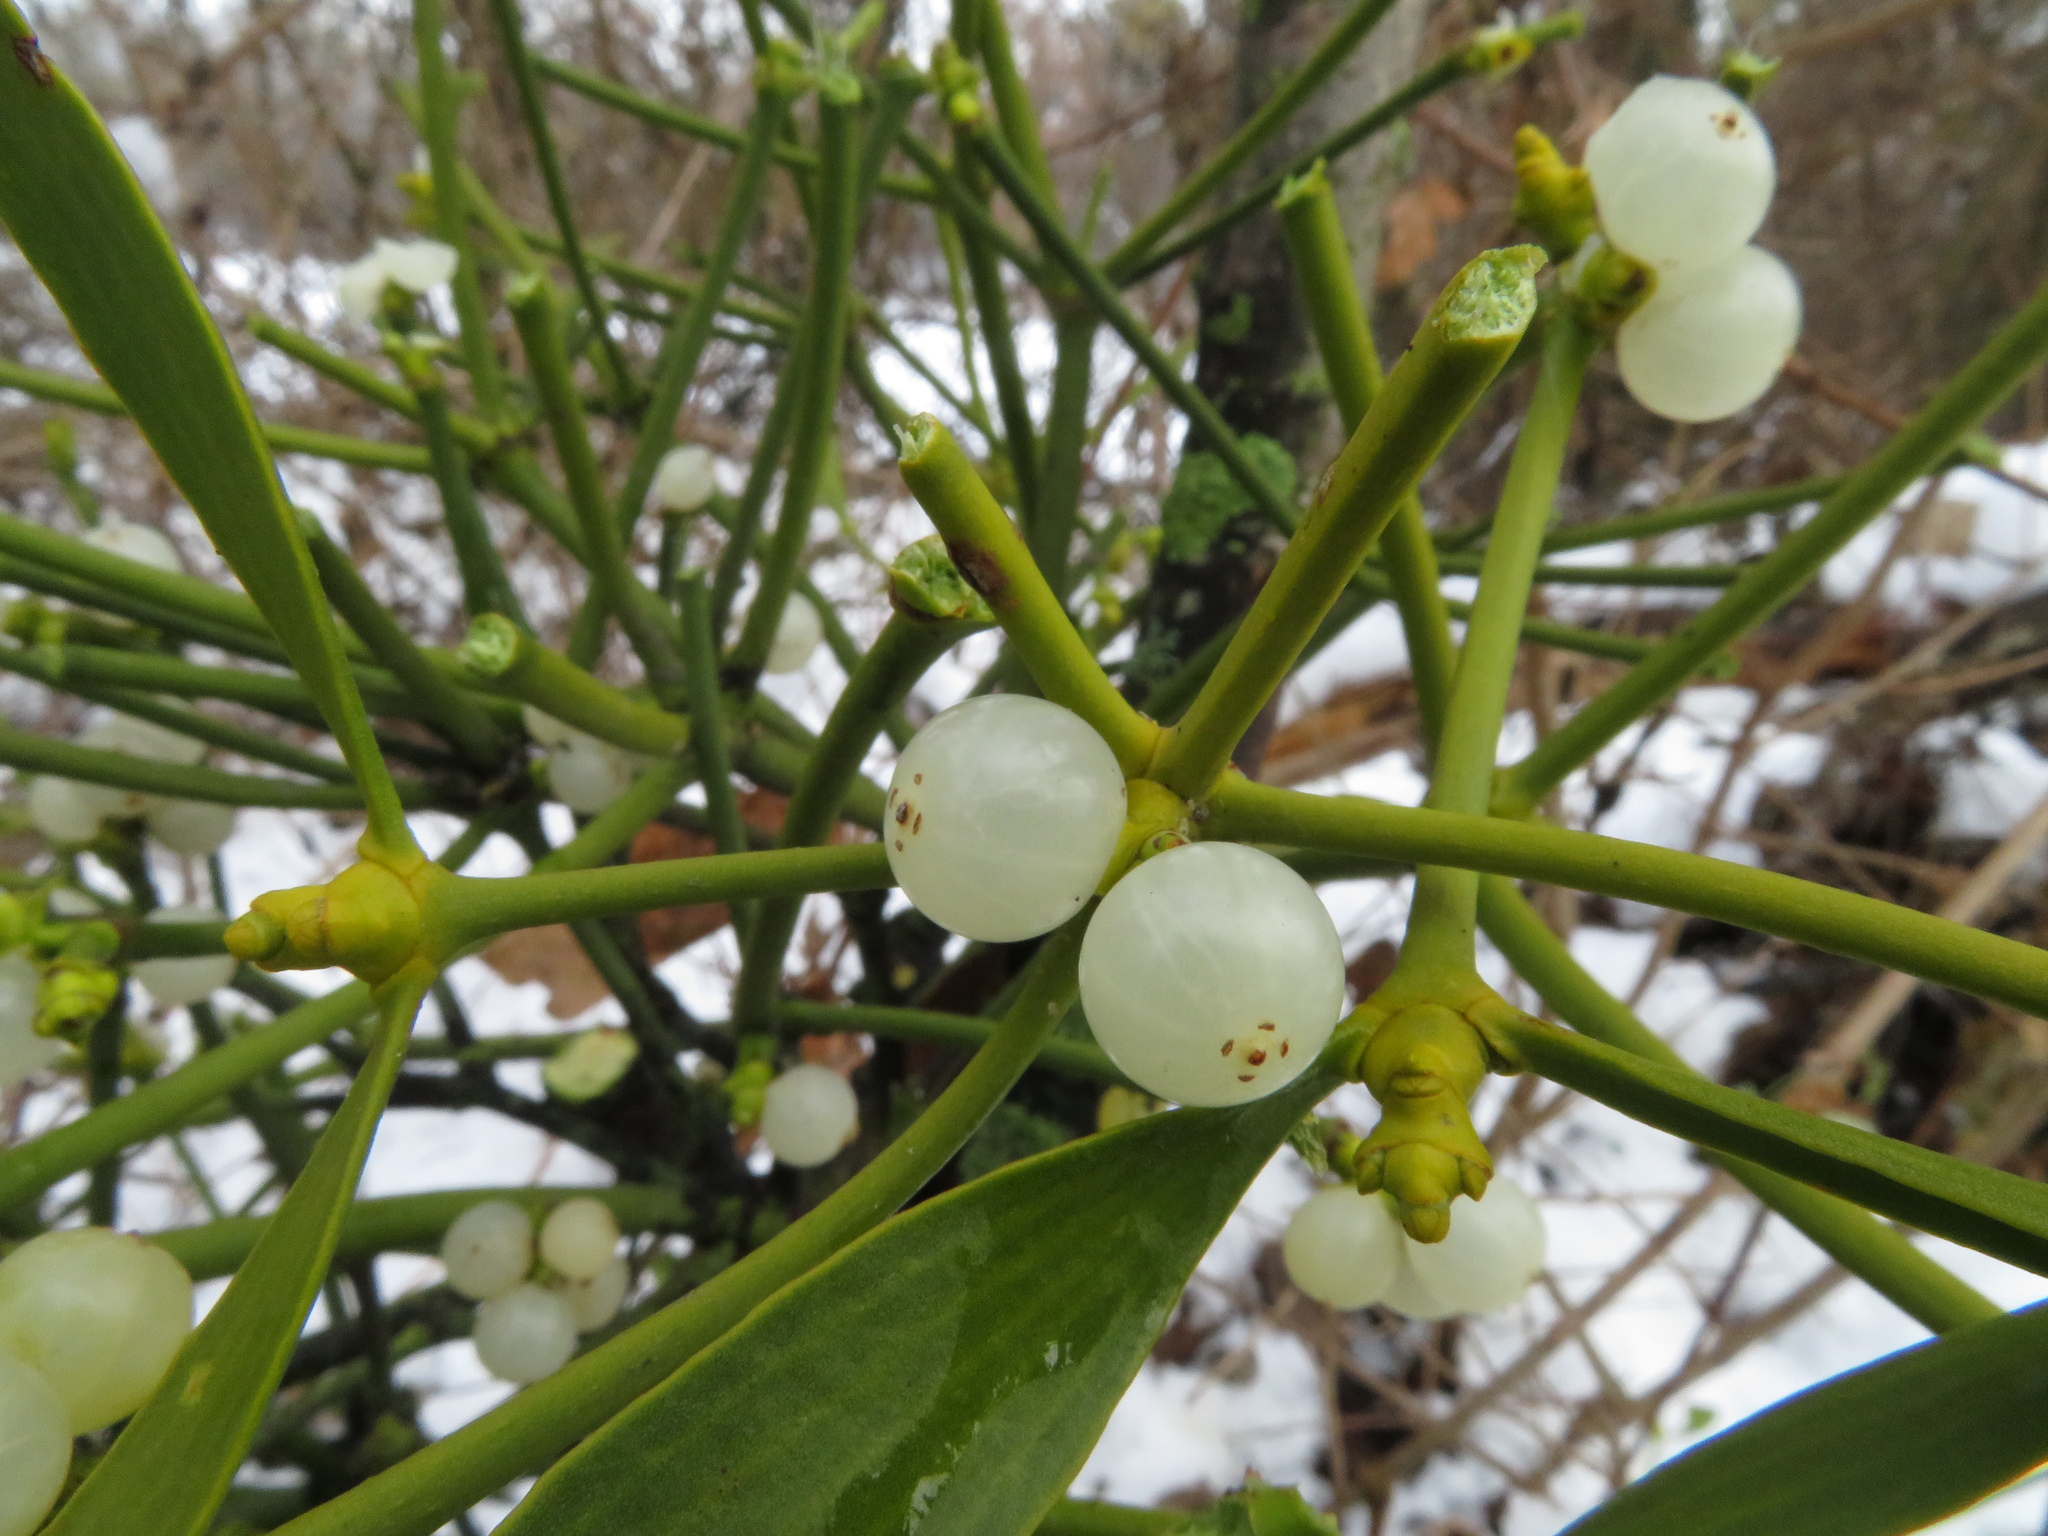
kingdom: Plantae
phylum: Tracheophyta
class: Magnoliopsida
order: Santalales
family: Viscaceae
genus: Viscum
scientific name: Viscum album
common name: Mistletoe
